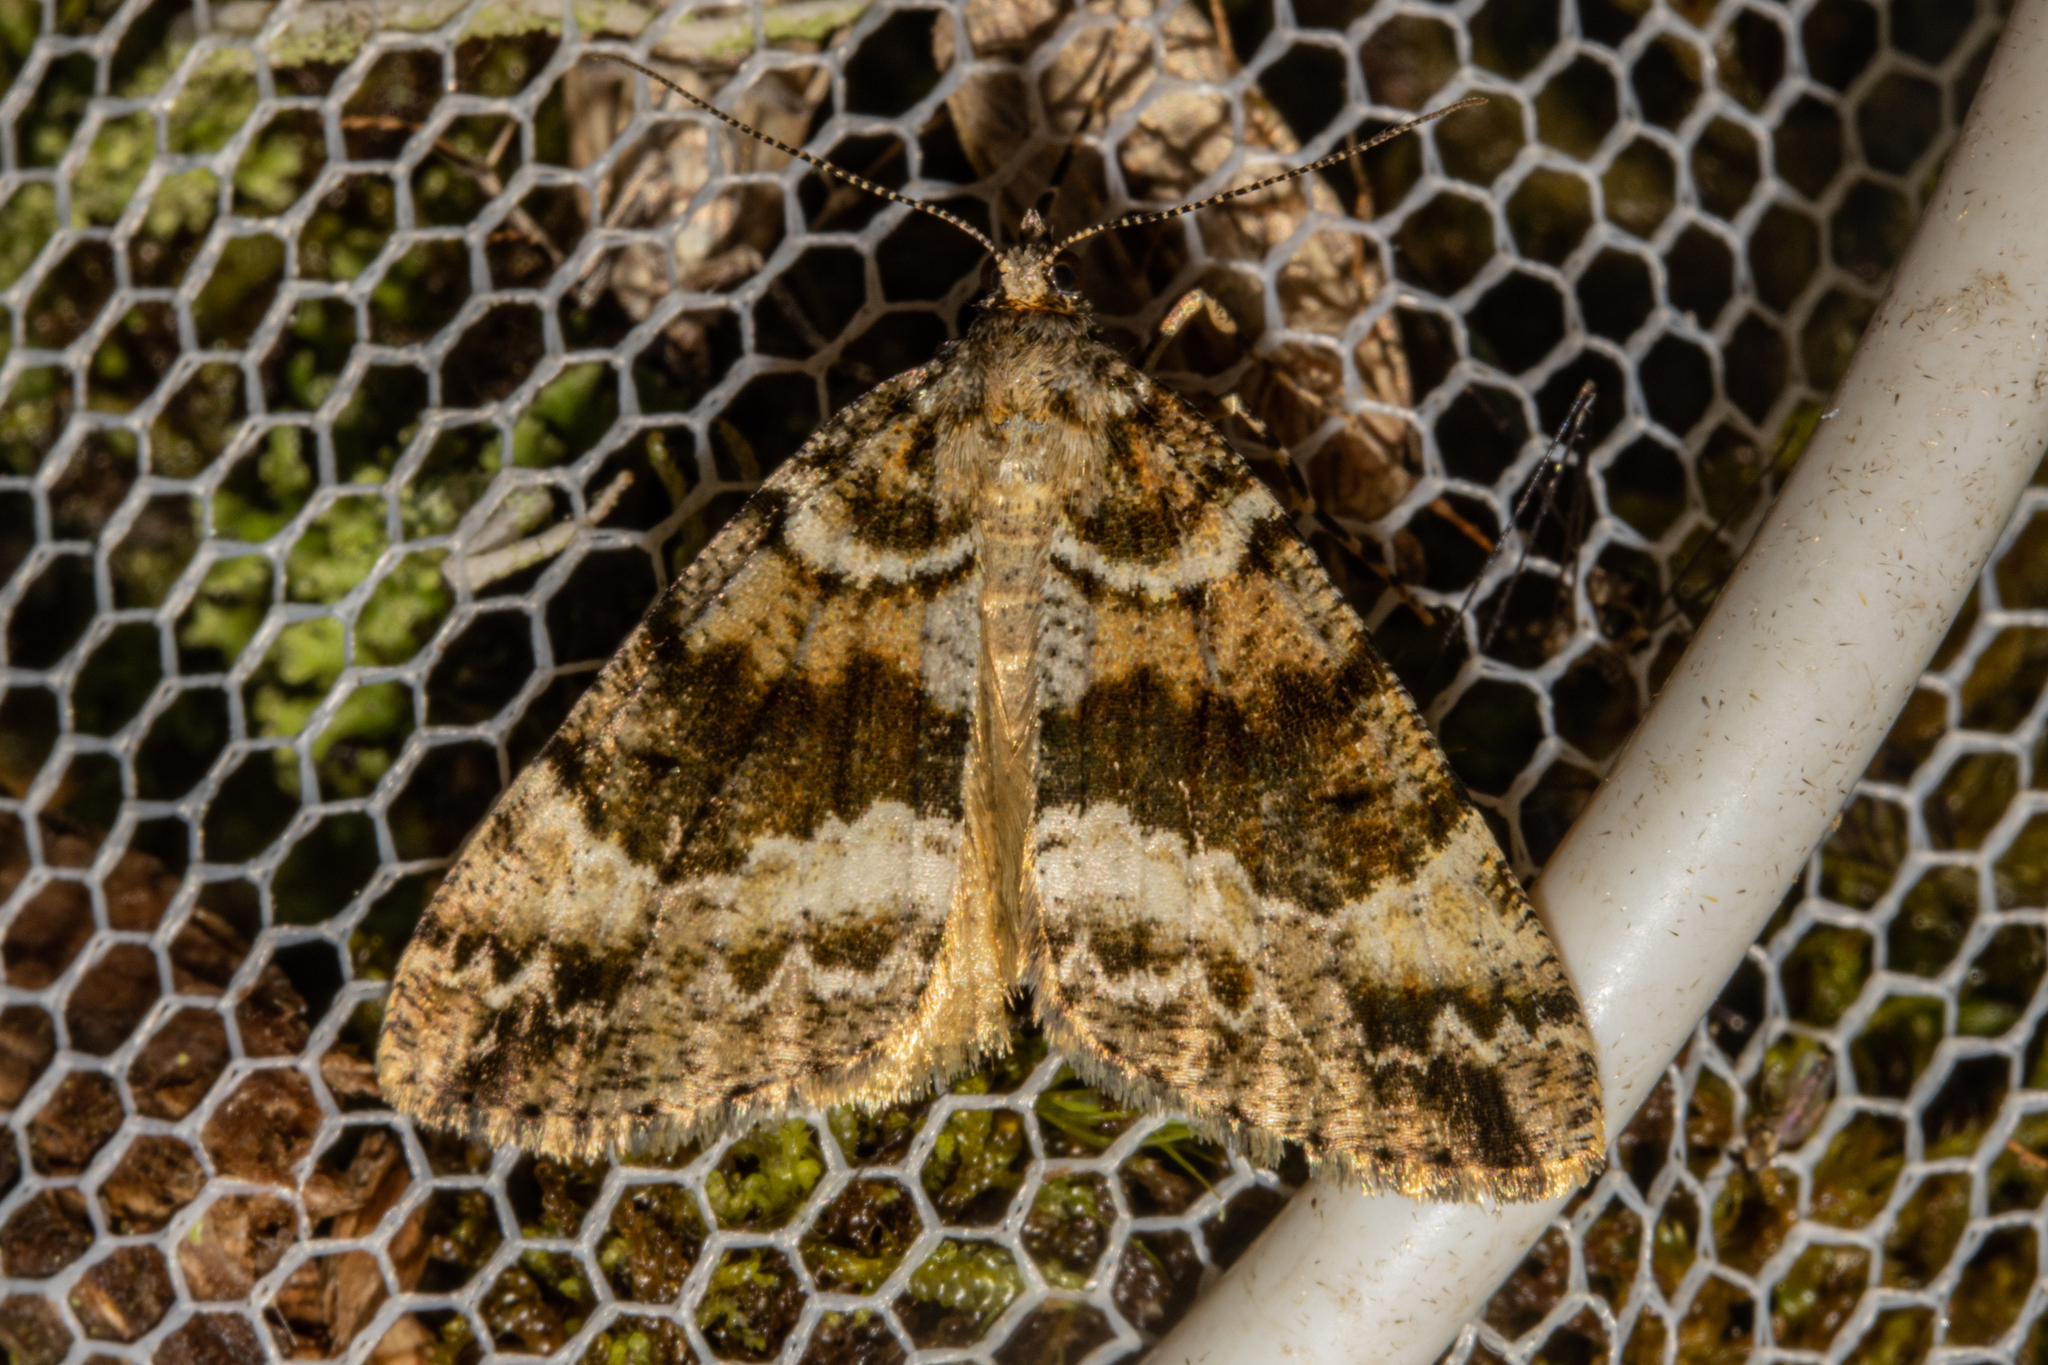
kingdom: Animalia
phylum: Arthropoda
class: Insecta
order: Lepidoptera
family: Geometridae
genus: Pseudocoremia
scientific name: Pseudocoremia productata
